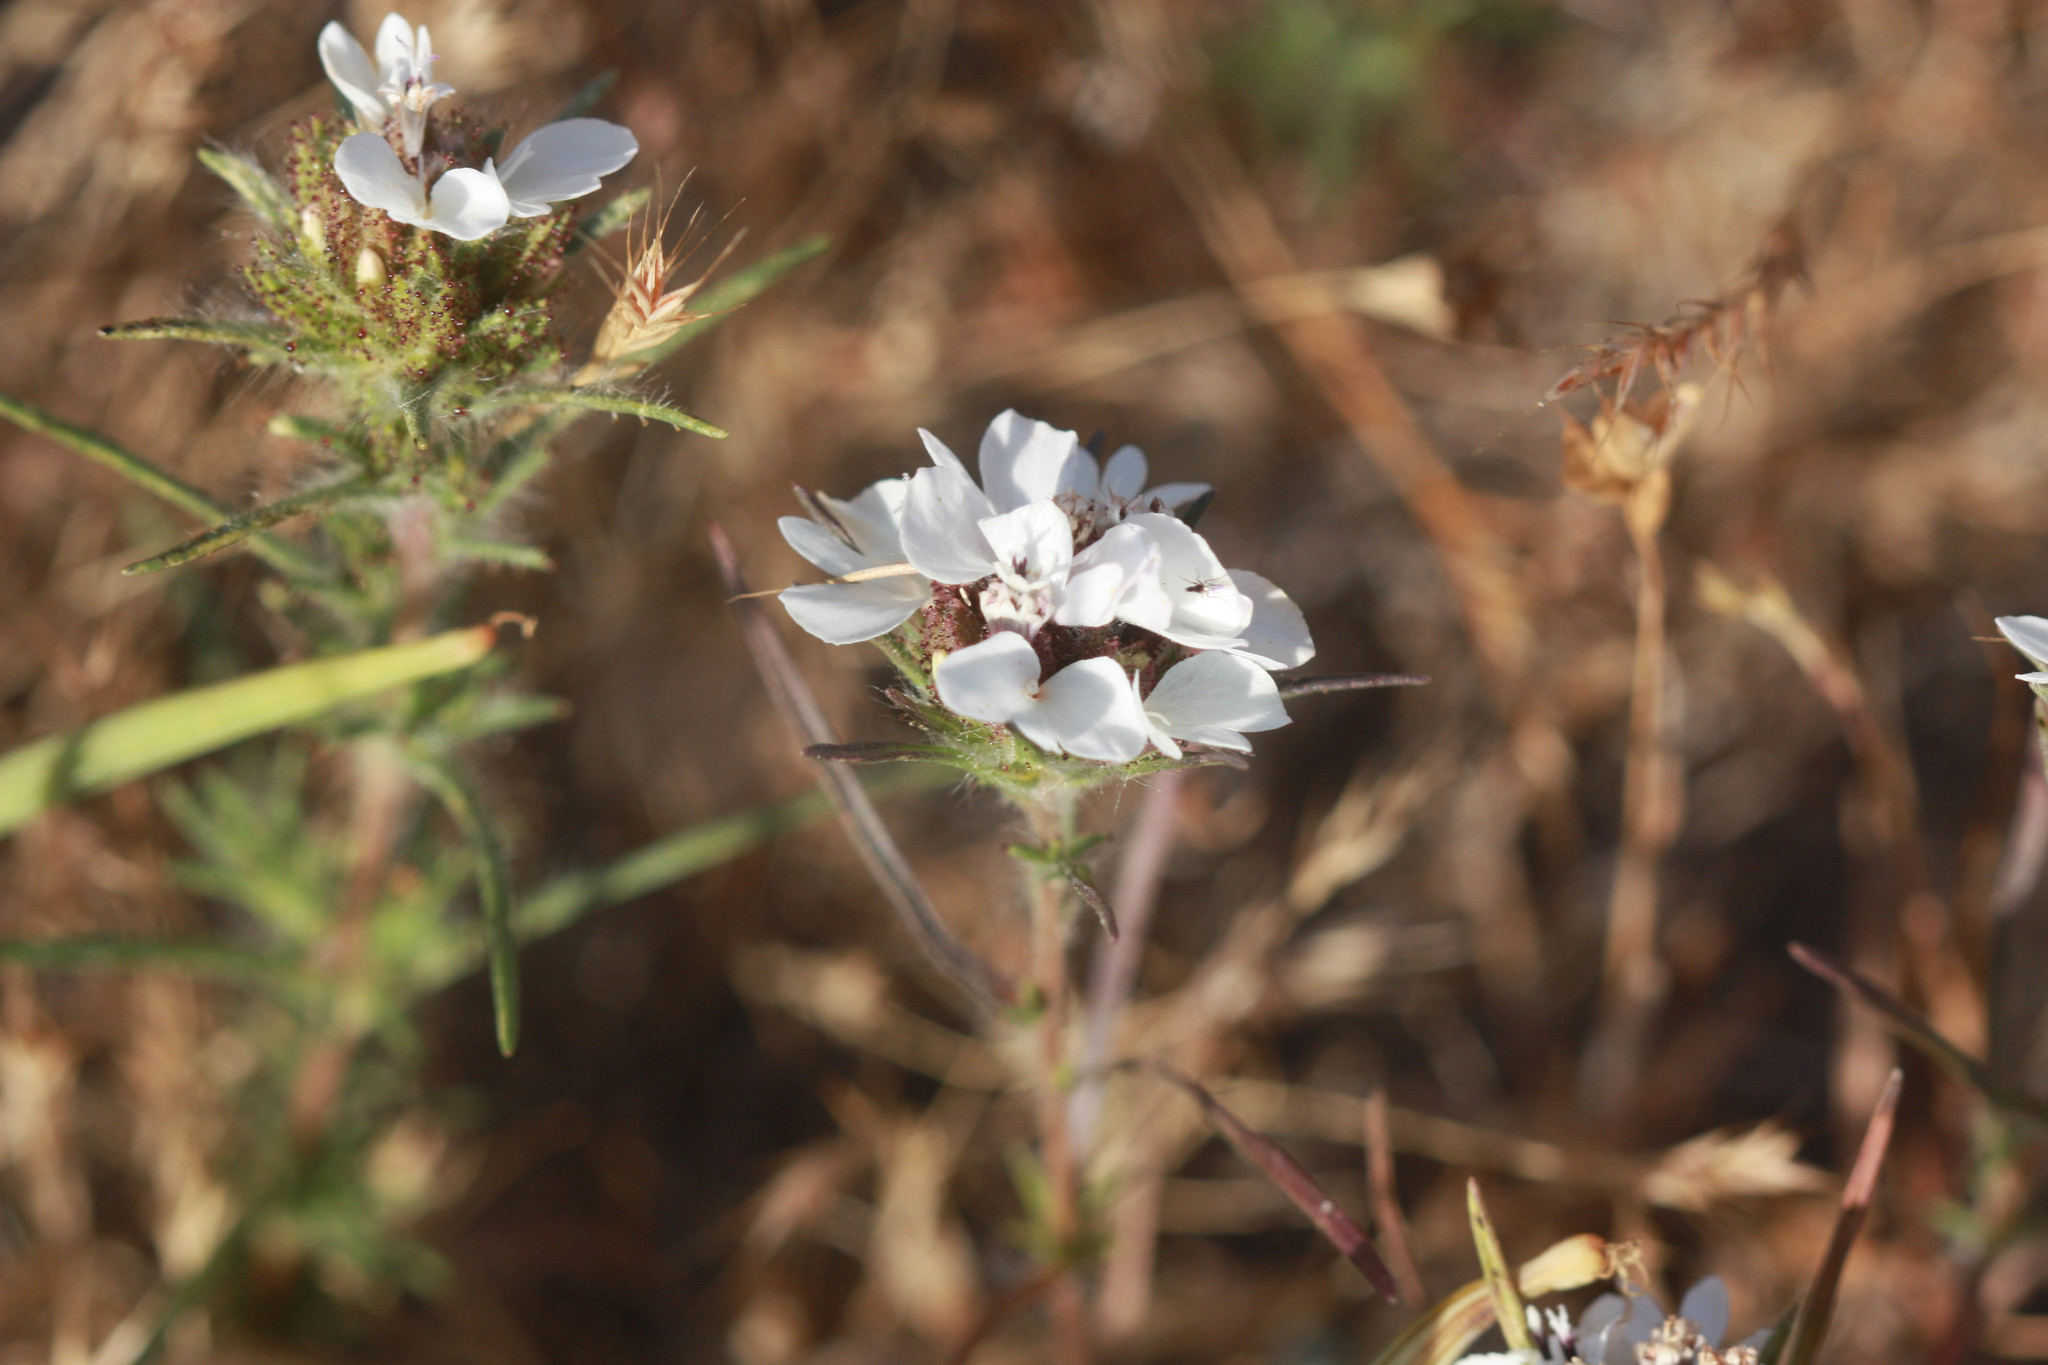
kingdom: Plantae
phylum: Tracheophyta
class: Magnoliopsida
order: Asterales
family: Asteraceae
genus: Calycadenia
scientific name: Calycadenia multiglandulosa
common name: Sticky calycadenia
